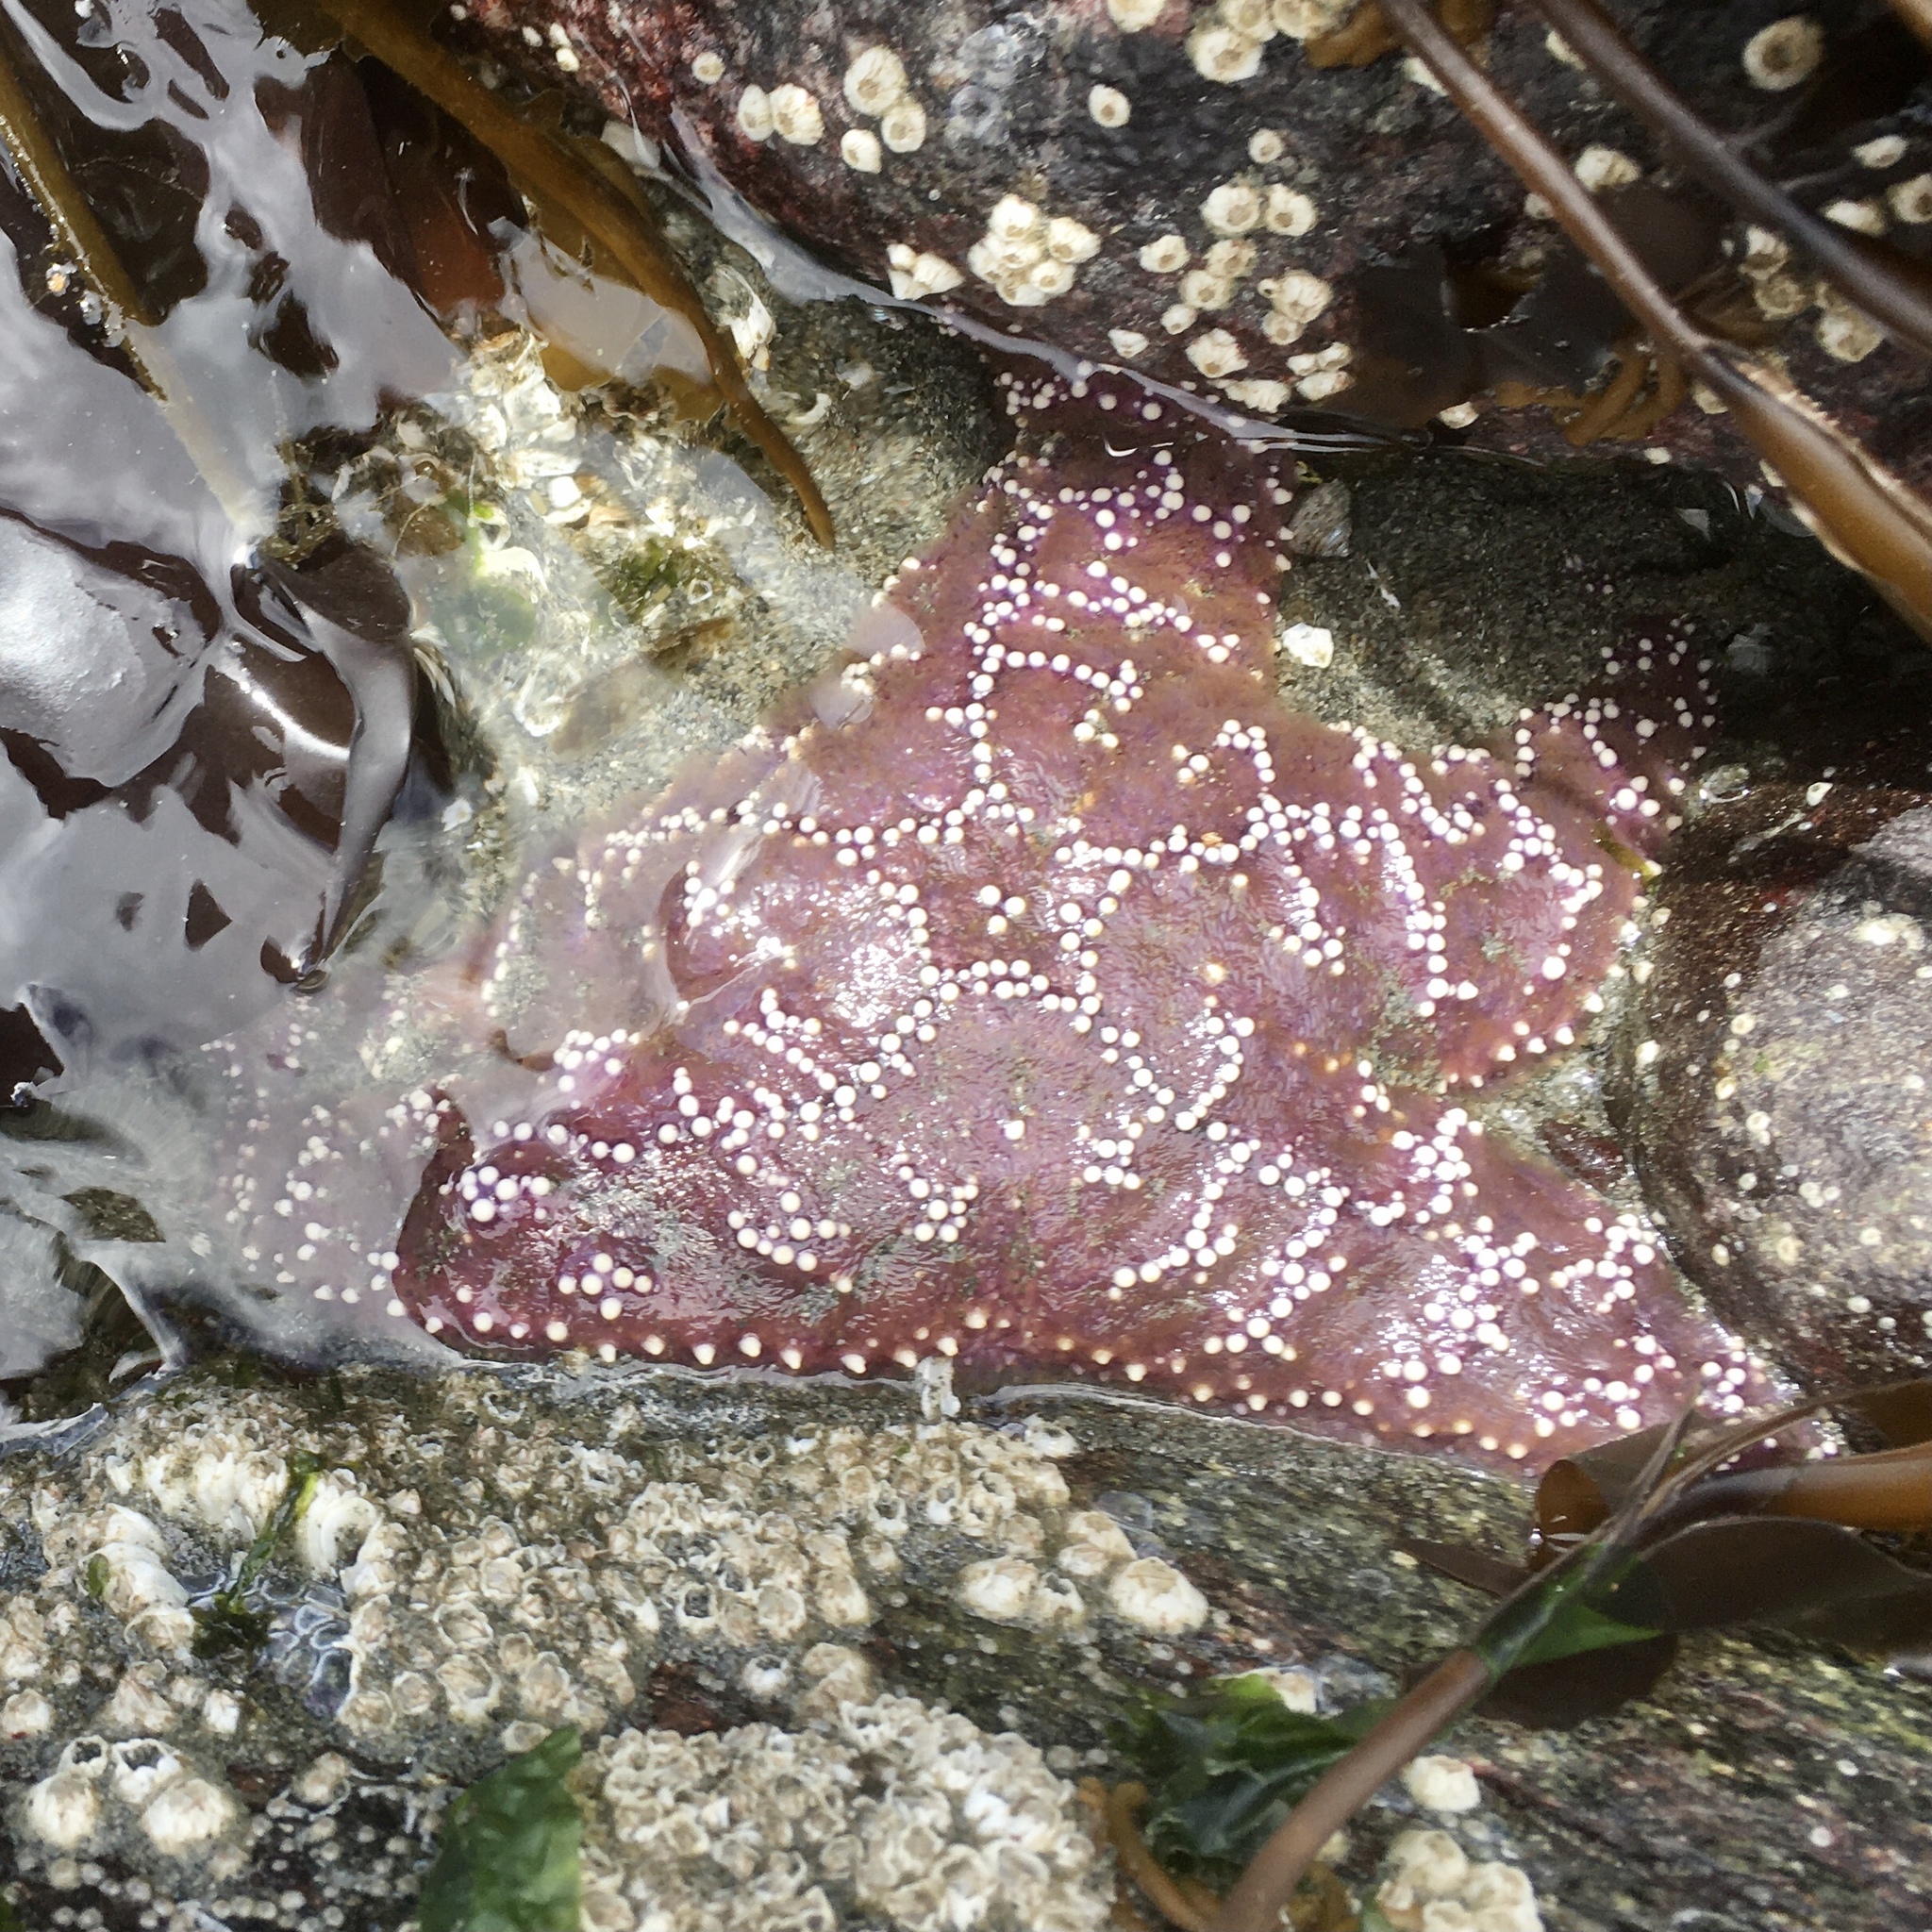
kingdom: Animalia
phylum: Echinodermata
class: Asteroidea
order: Forcipulatida
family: Asteriidae
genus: Pisaster
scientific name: Pisaster ochraceus
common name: Ochre stars
